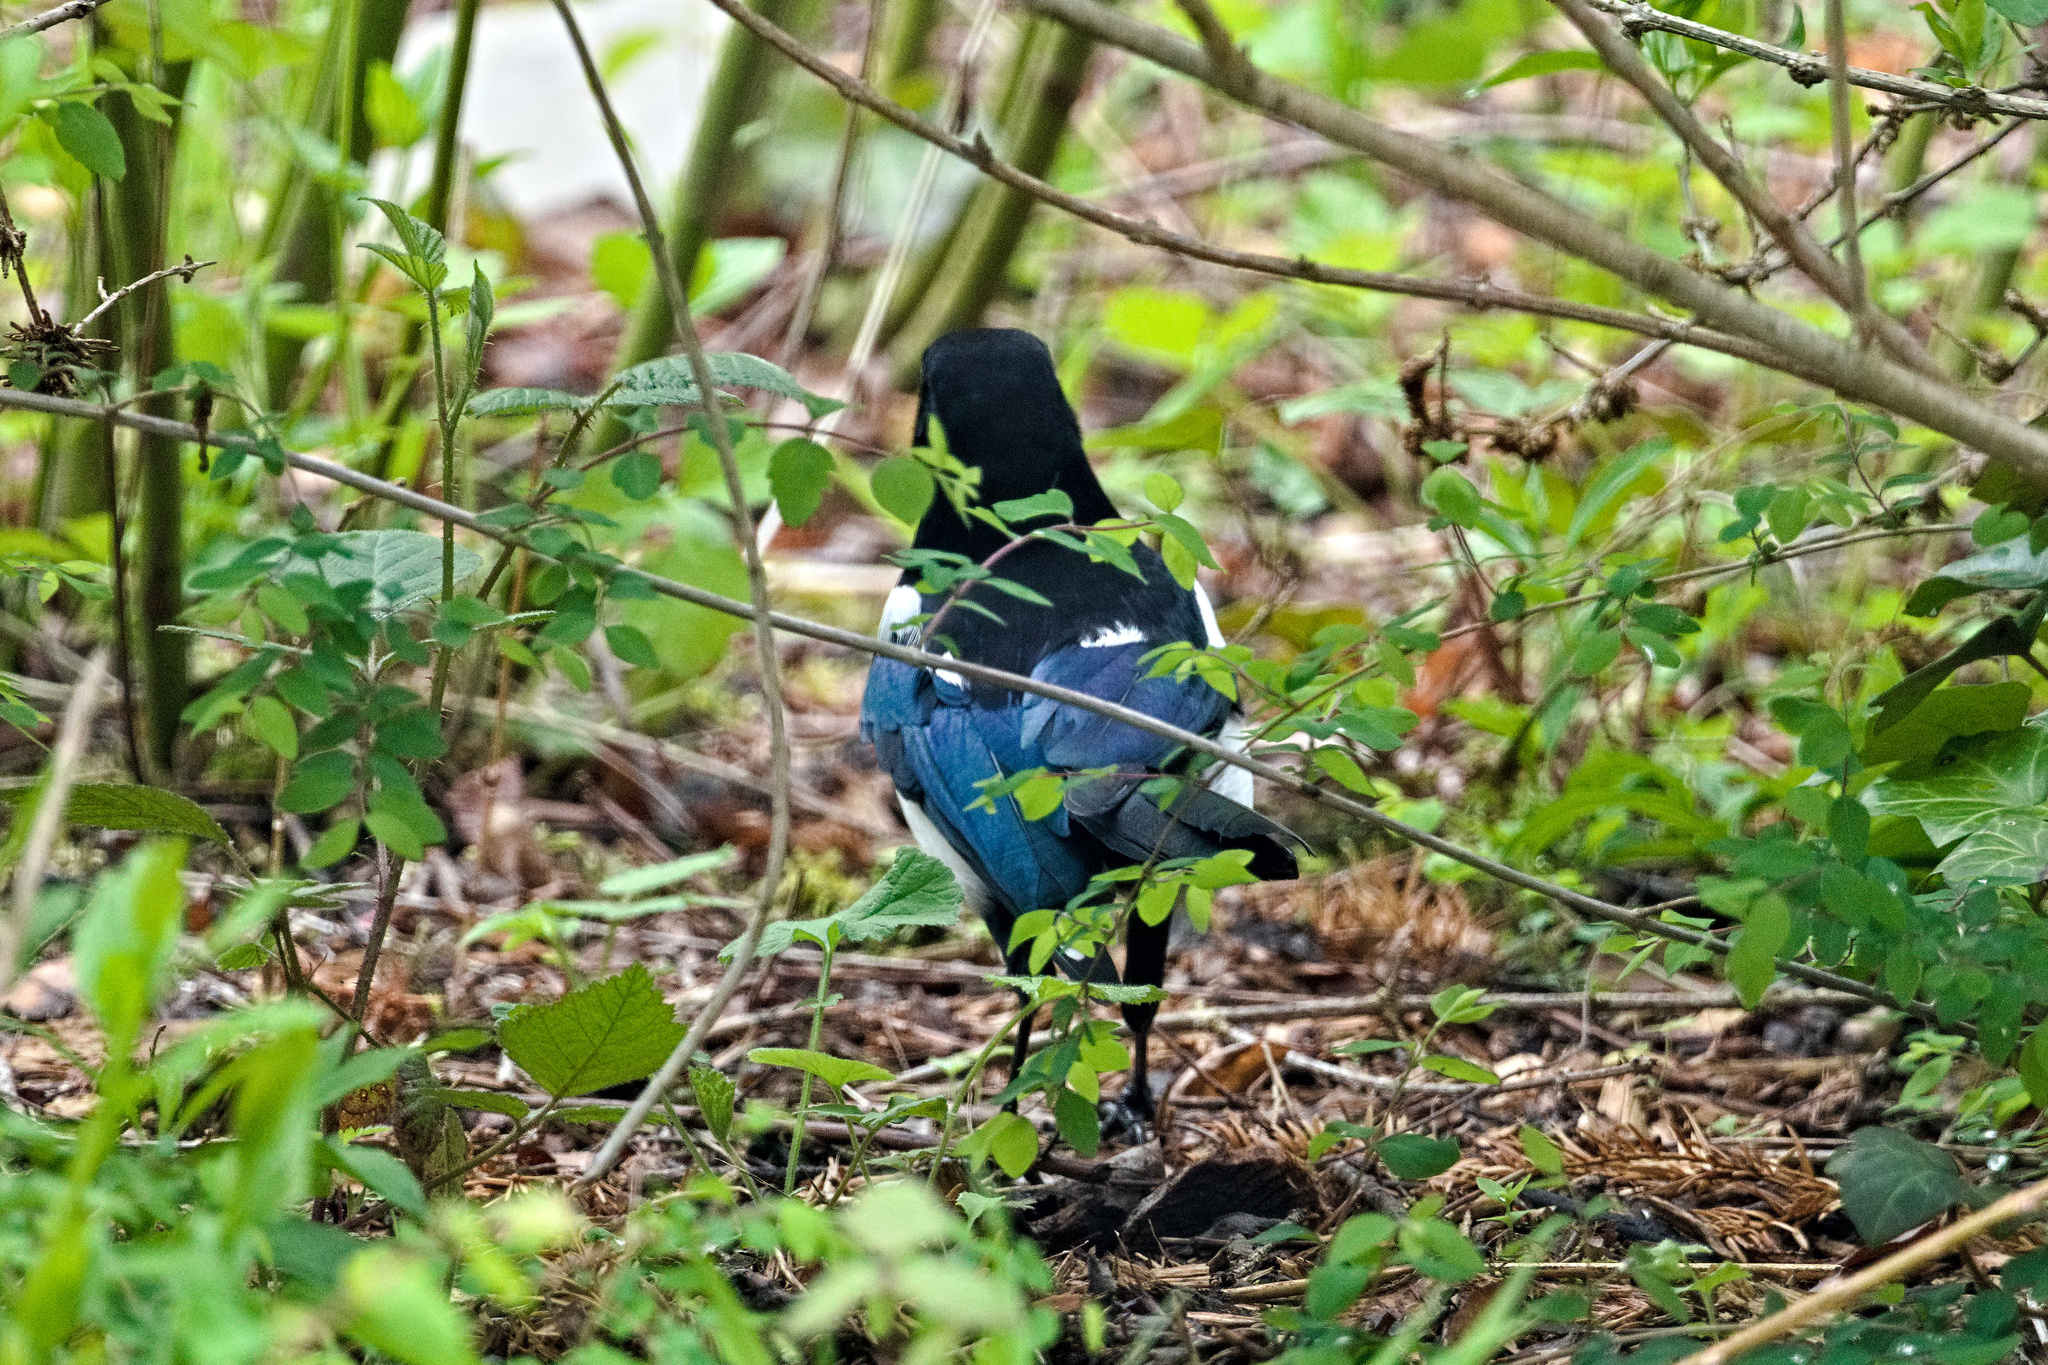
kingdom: Animalia
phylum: Chordata
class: Aves
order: Passeriformes
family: Corvidae
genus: Pica
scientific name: Pica pica
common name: Eurasian magpie
